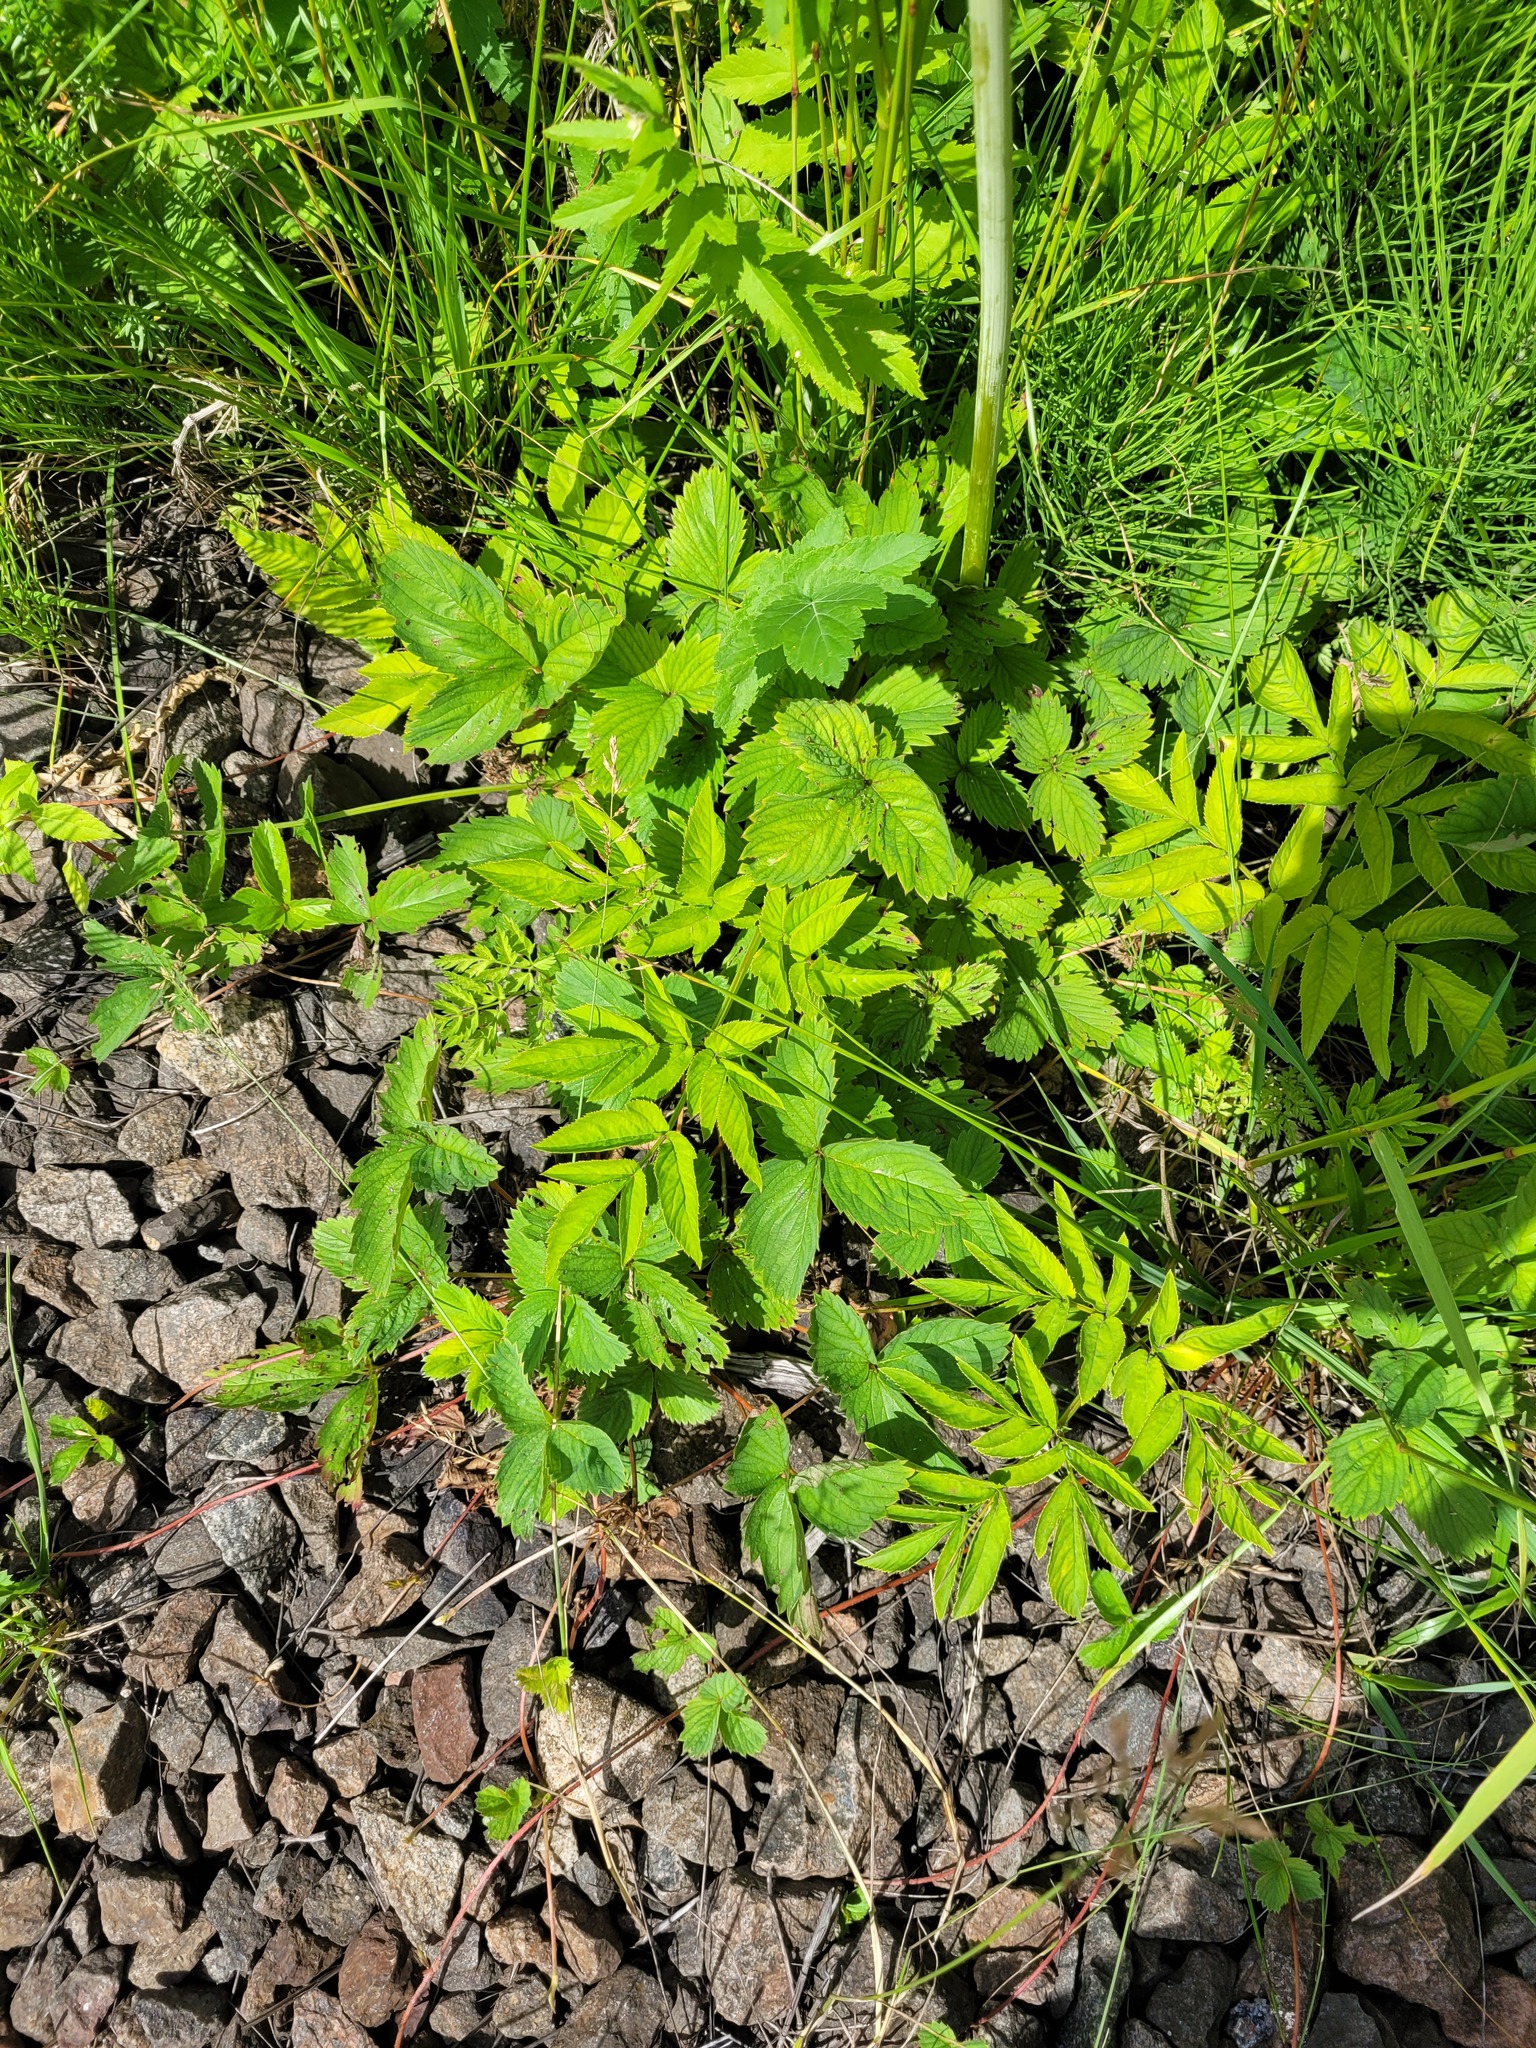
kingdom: Plantae
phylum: Tracheophyta
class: Magnoliopsida
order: Rosales
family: Rosaceae
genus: Fragaria
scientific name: Fragaria ananassa
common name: Garden strawberry
